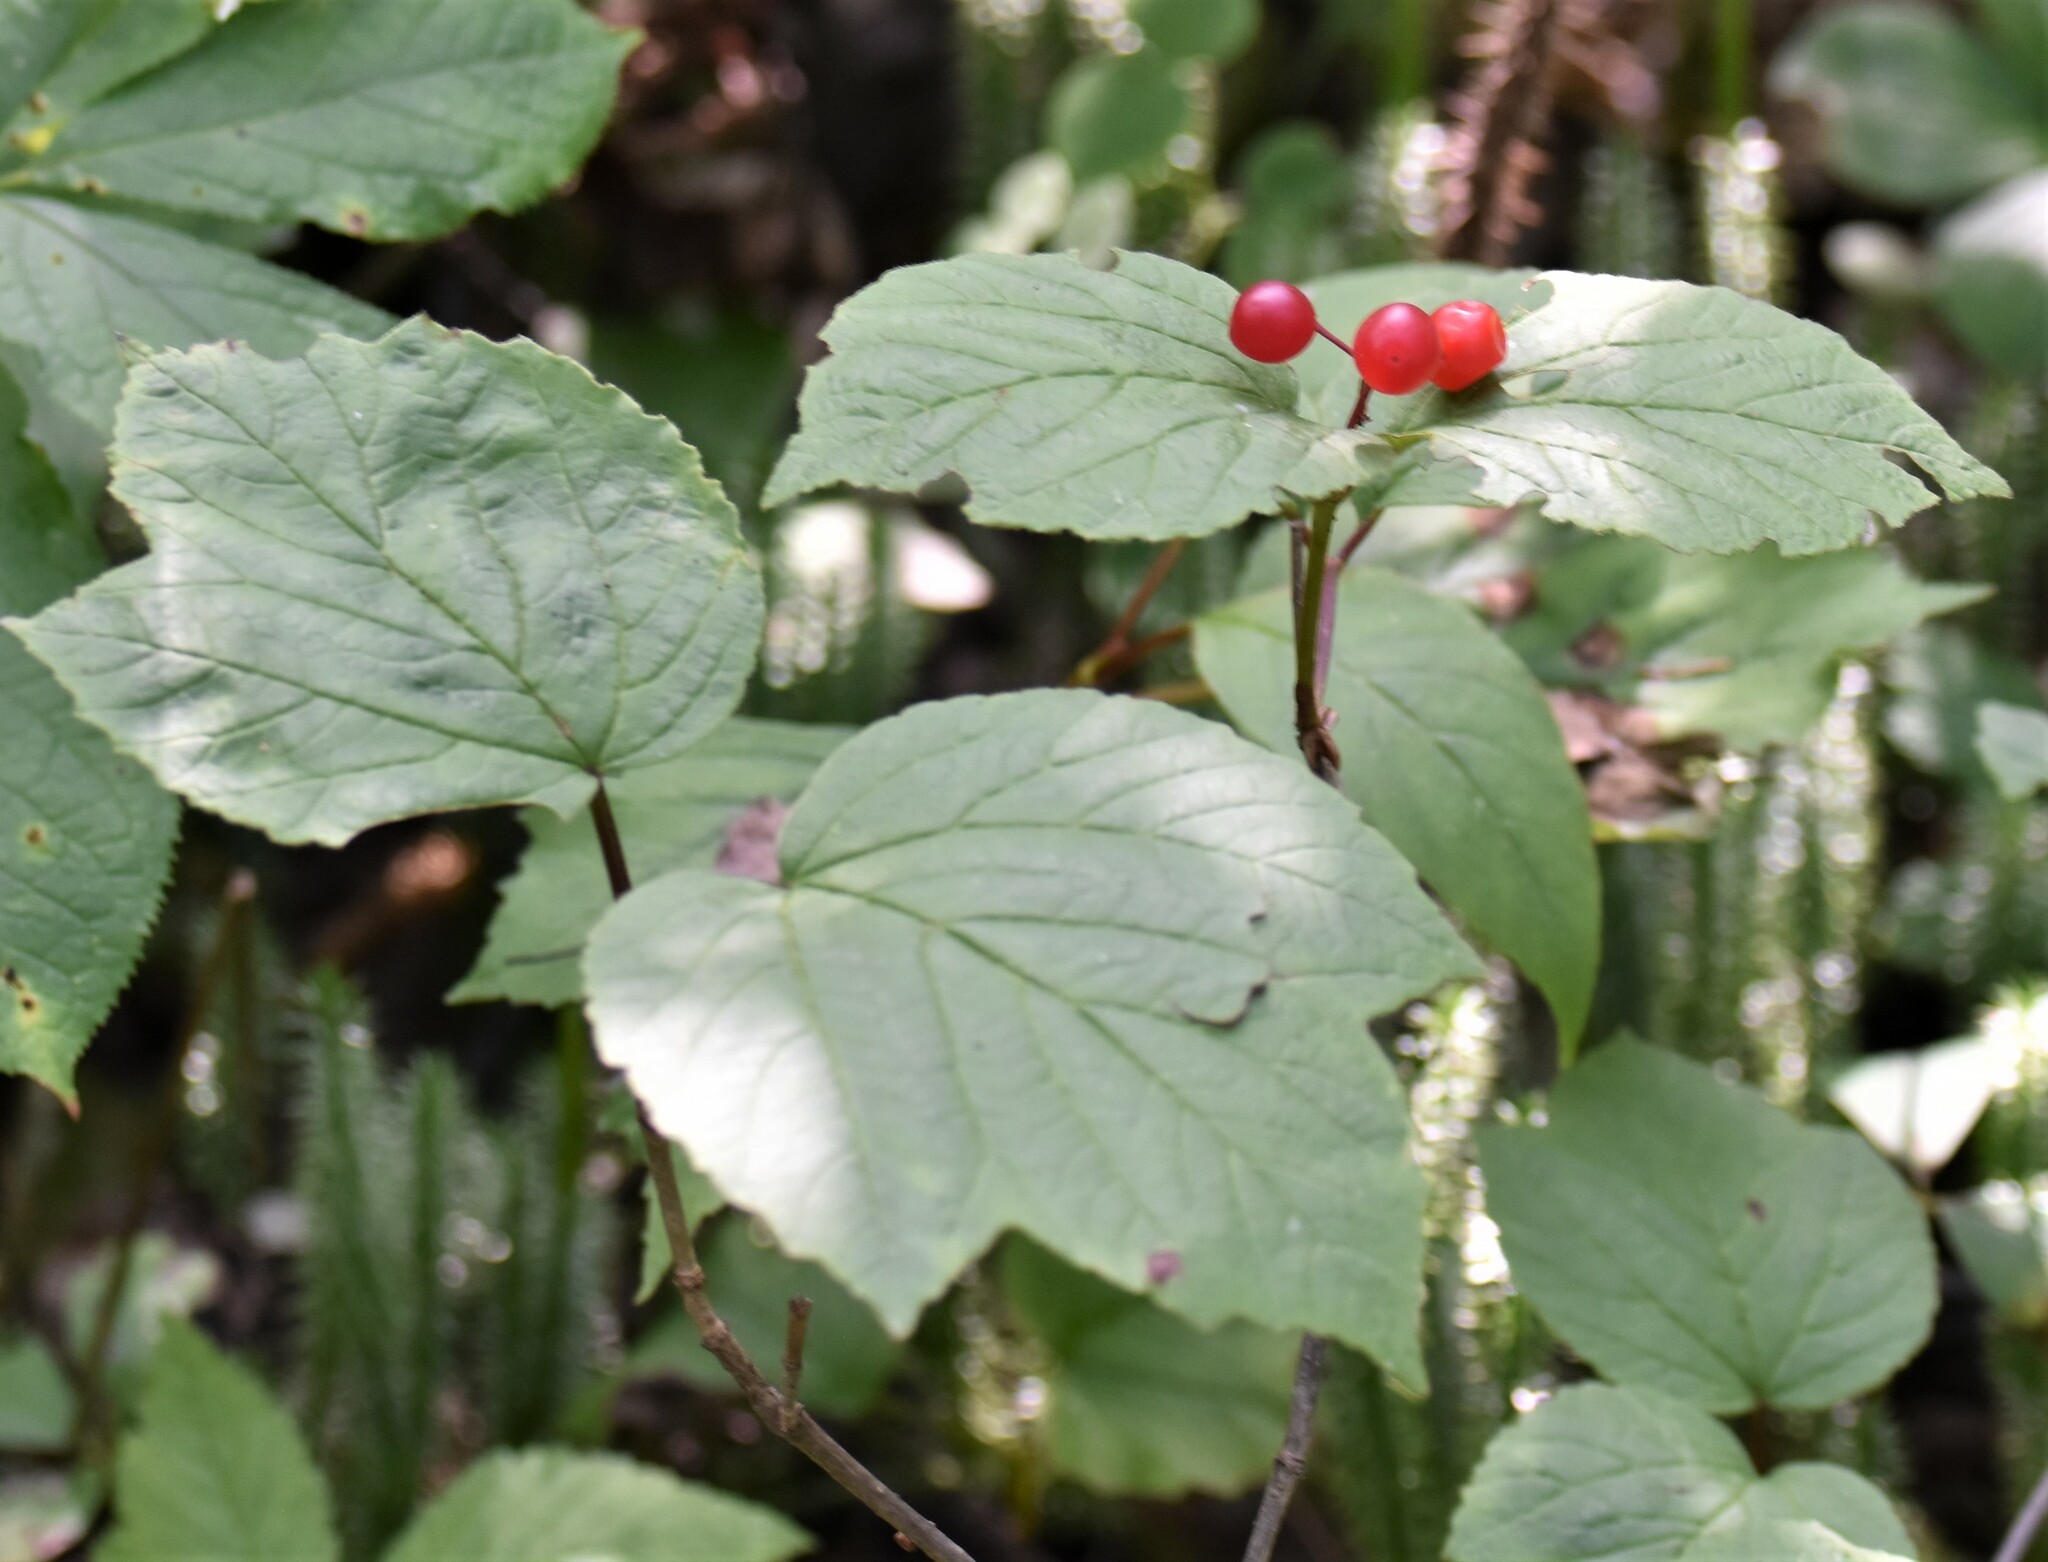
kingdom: Plantae
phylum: Tracheophyta
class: Magnoliopsida
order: Dipsacales
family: Viburnaceae
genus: Viburnum
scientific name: Viburnum edule
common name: Mooseberry
